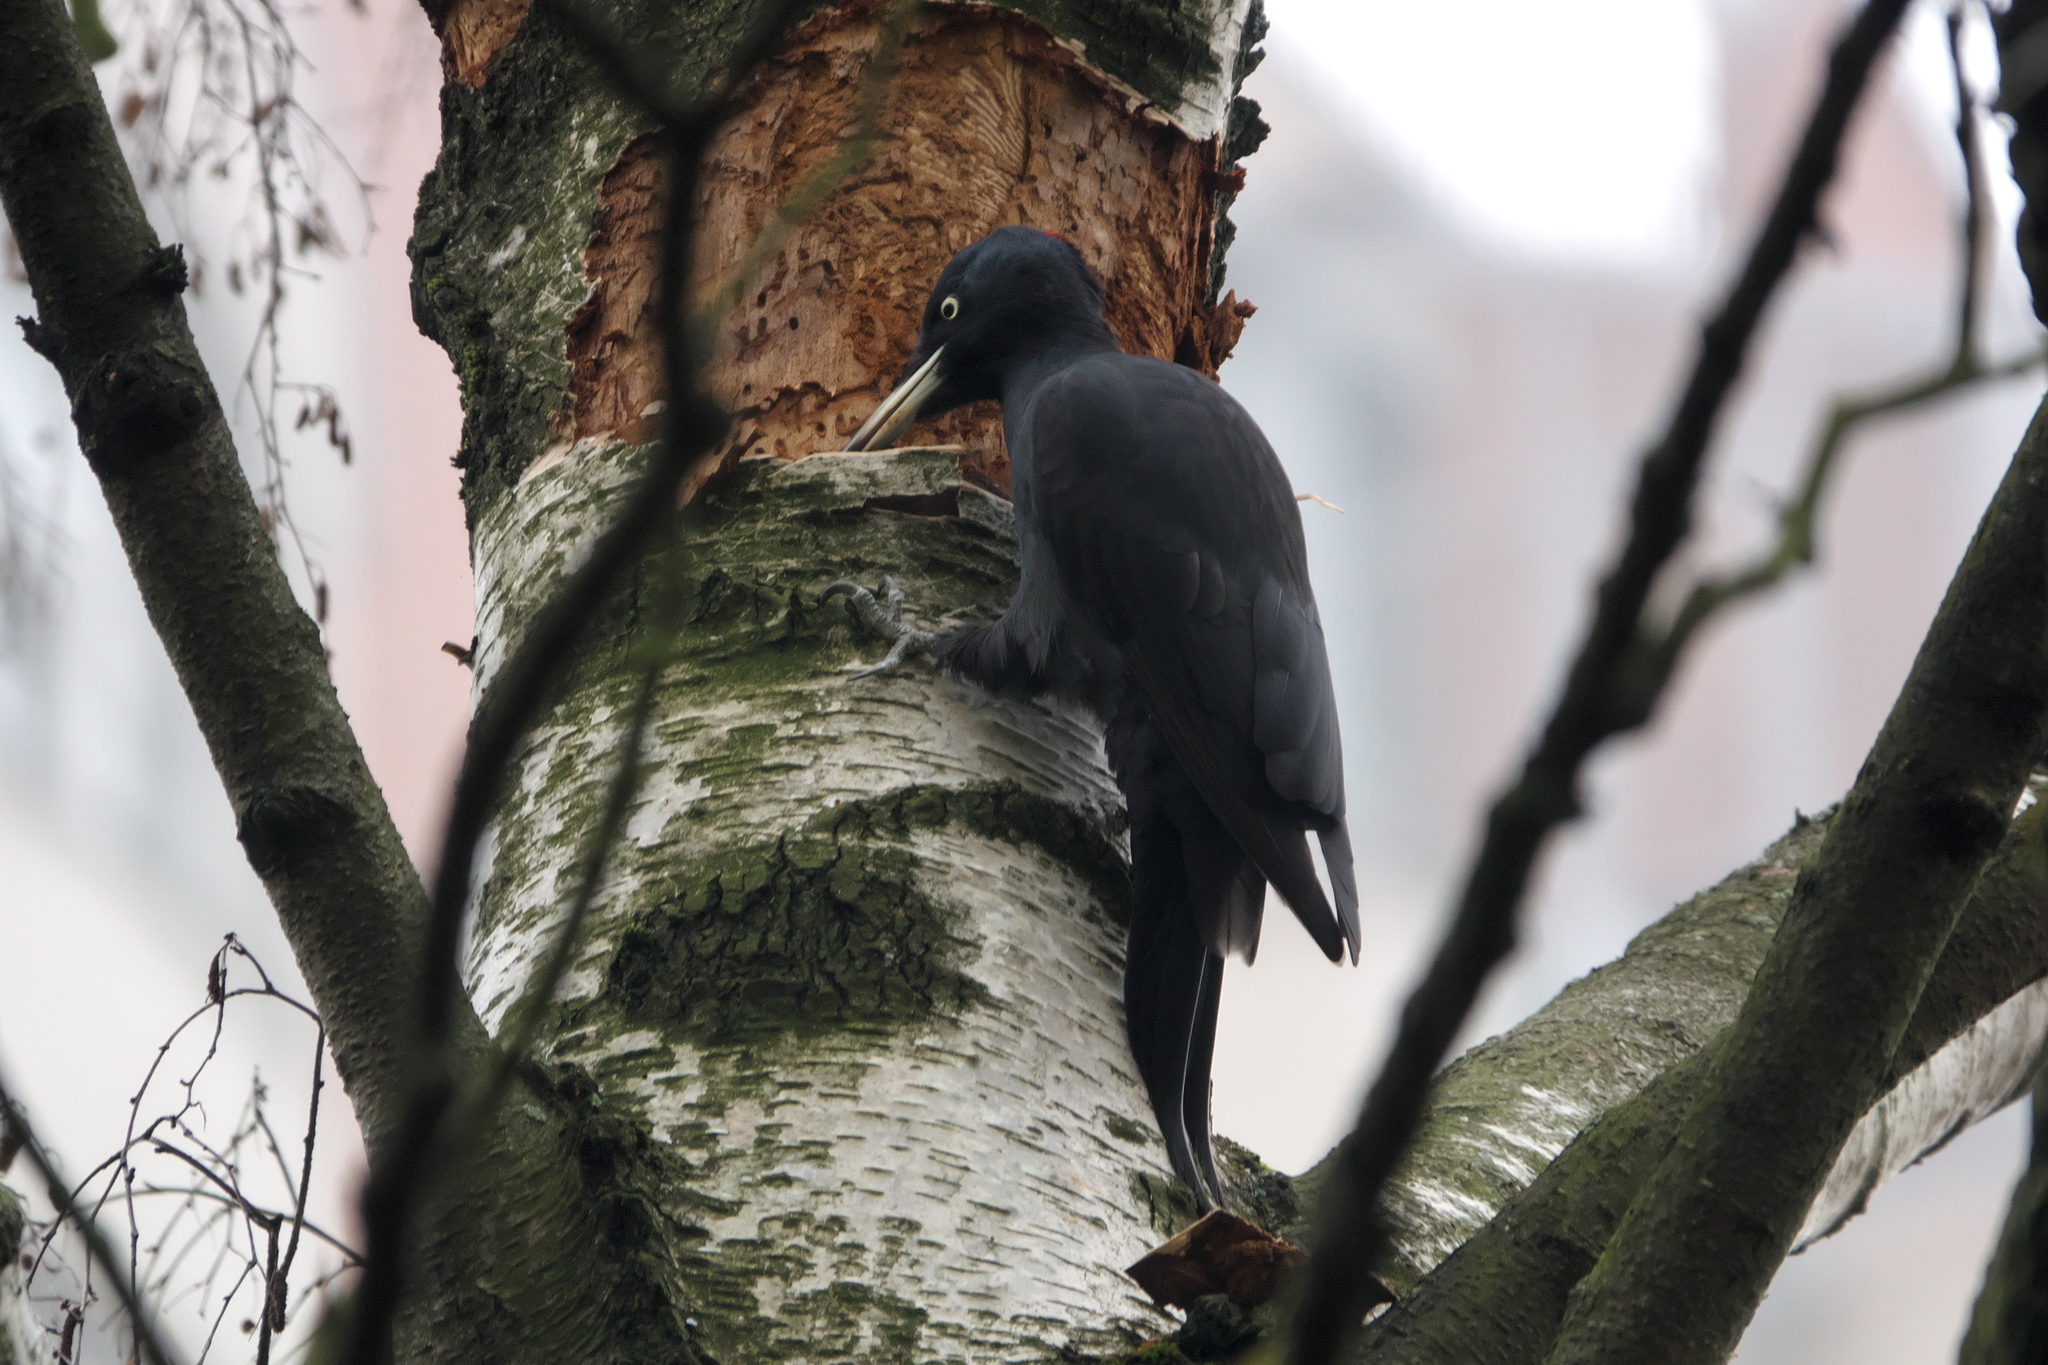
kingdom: Animalia
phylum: Chordata
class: Aves
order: Piciformes
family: Picidae
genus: Dryocopus
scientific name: Dryocopus martius
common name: Black woodpecker
